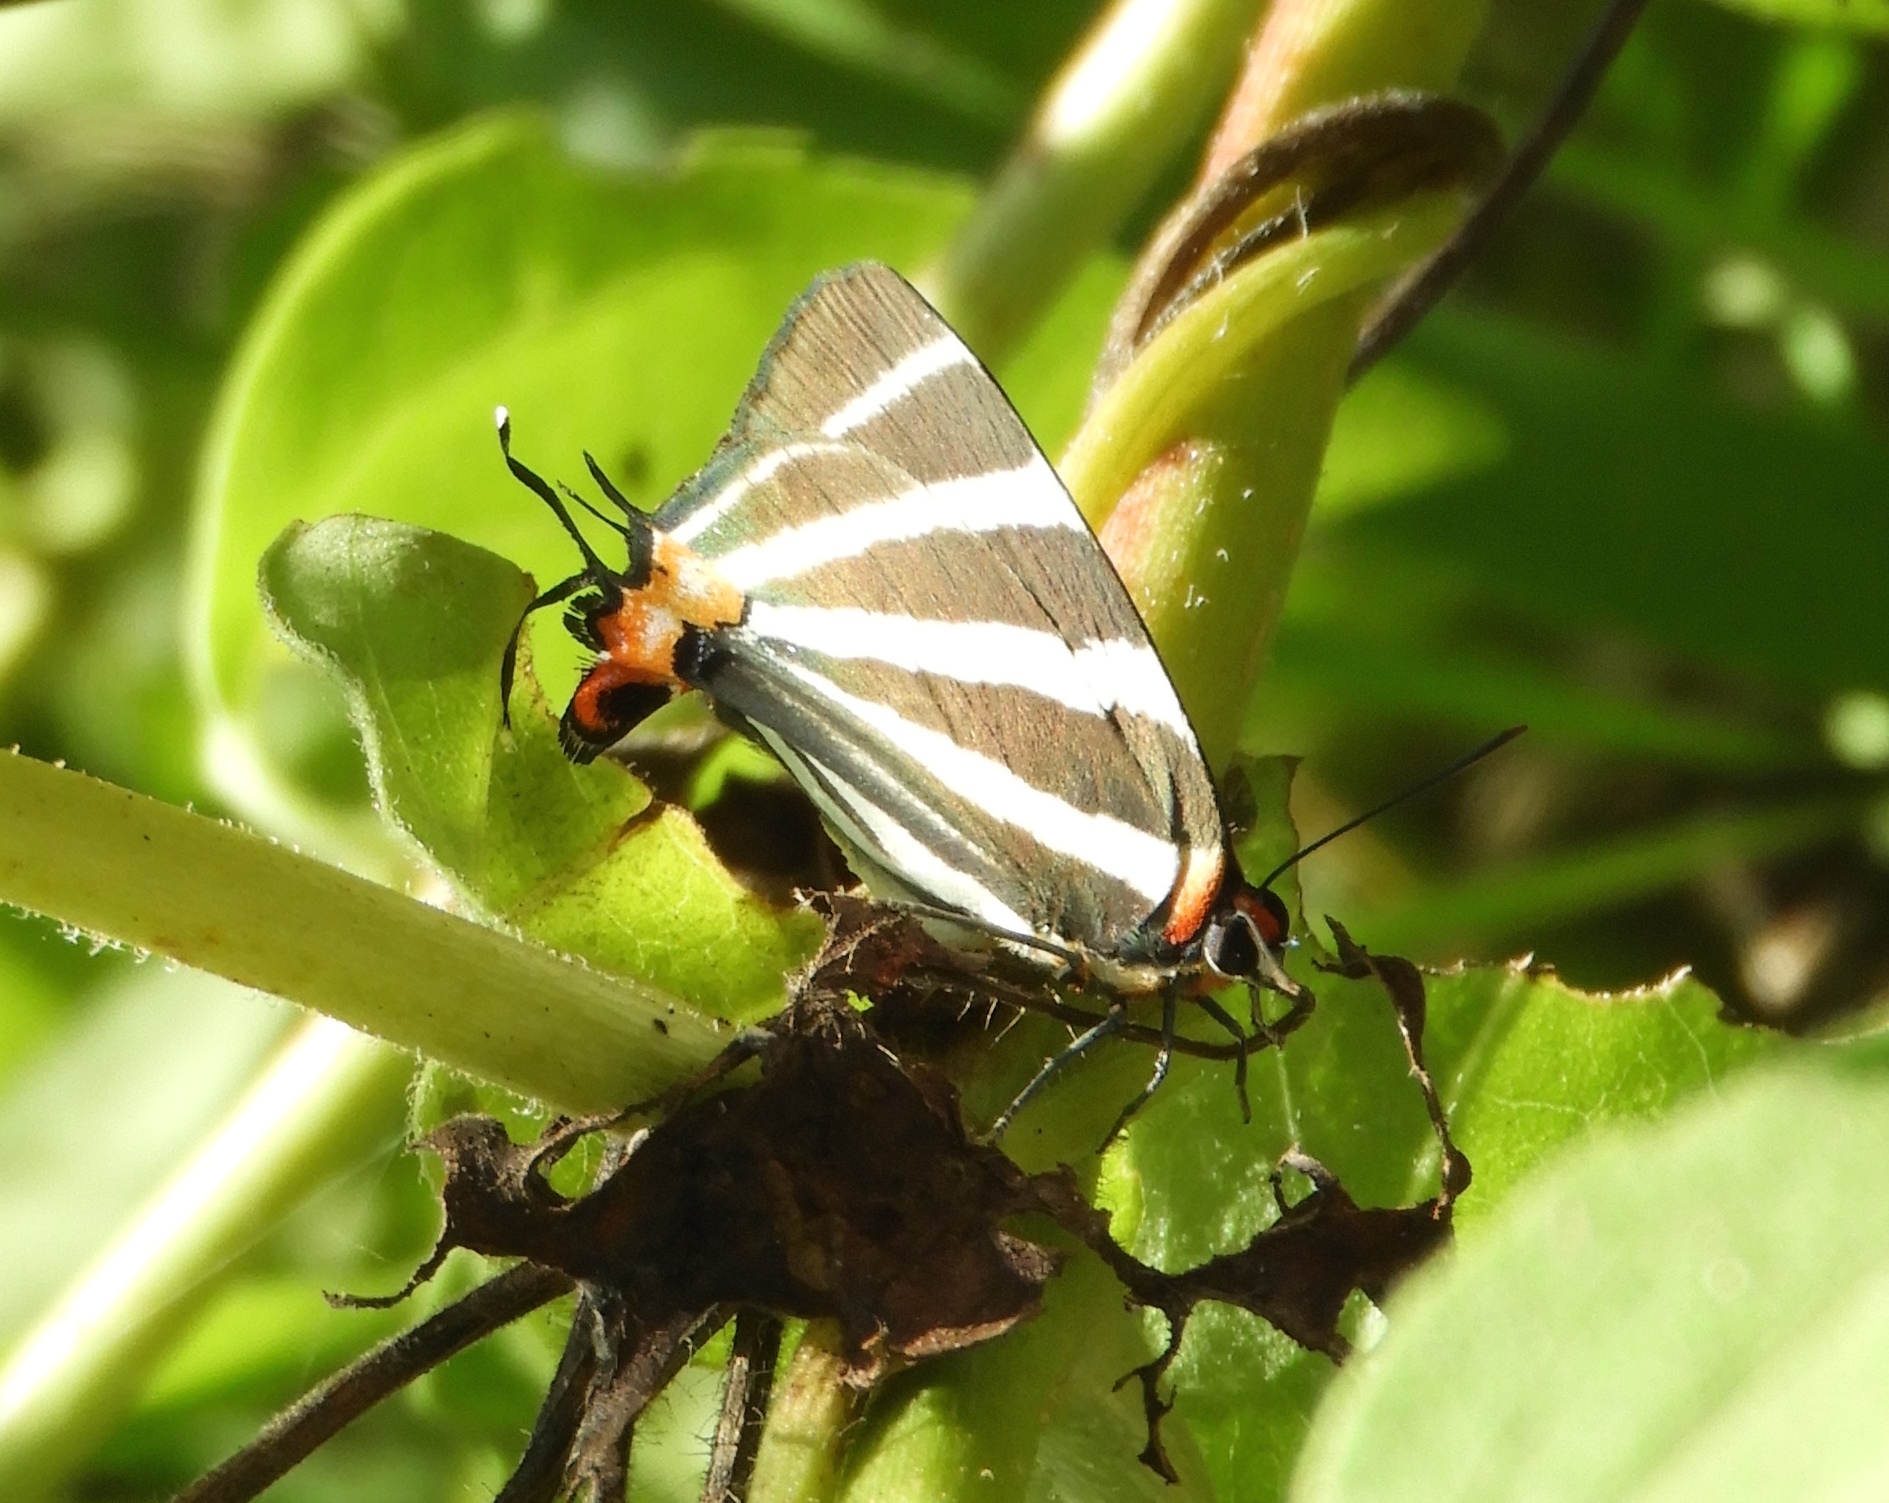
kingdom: Animalia
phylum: Arthropoda
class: Insecta
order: Lepidoptera
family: Lycaenidae
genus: Thecla
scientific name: Thecla bathildis
